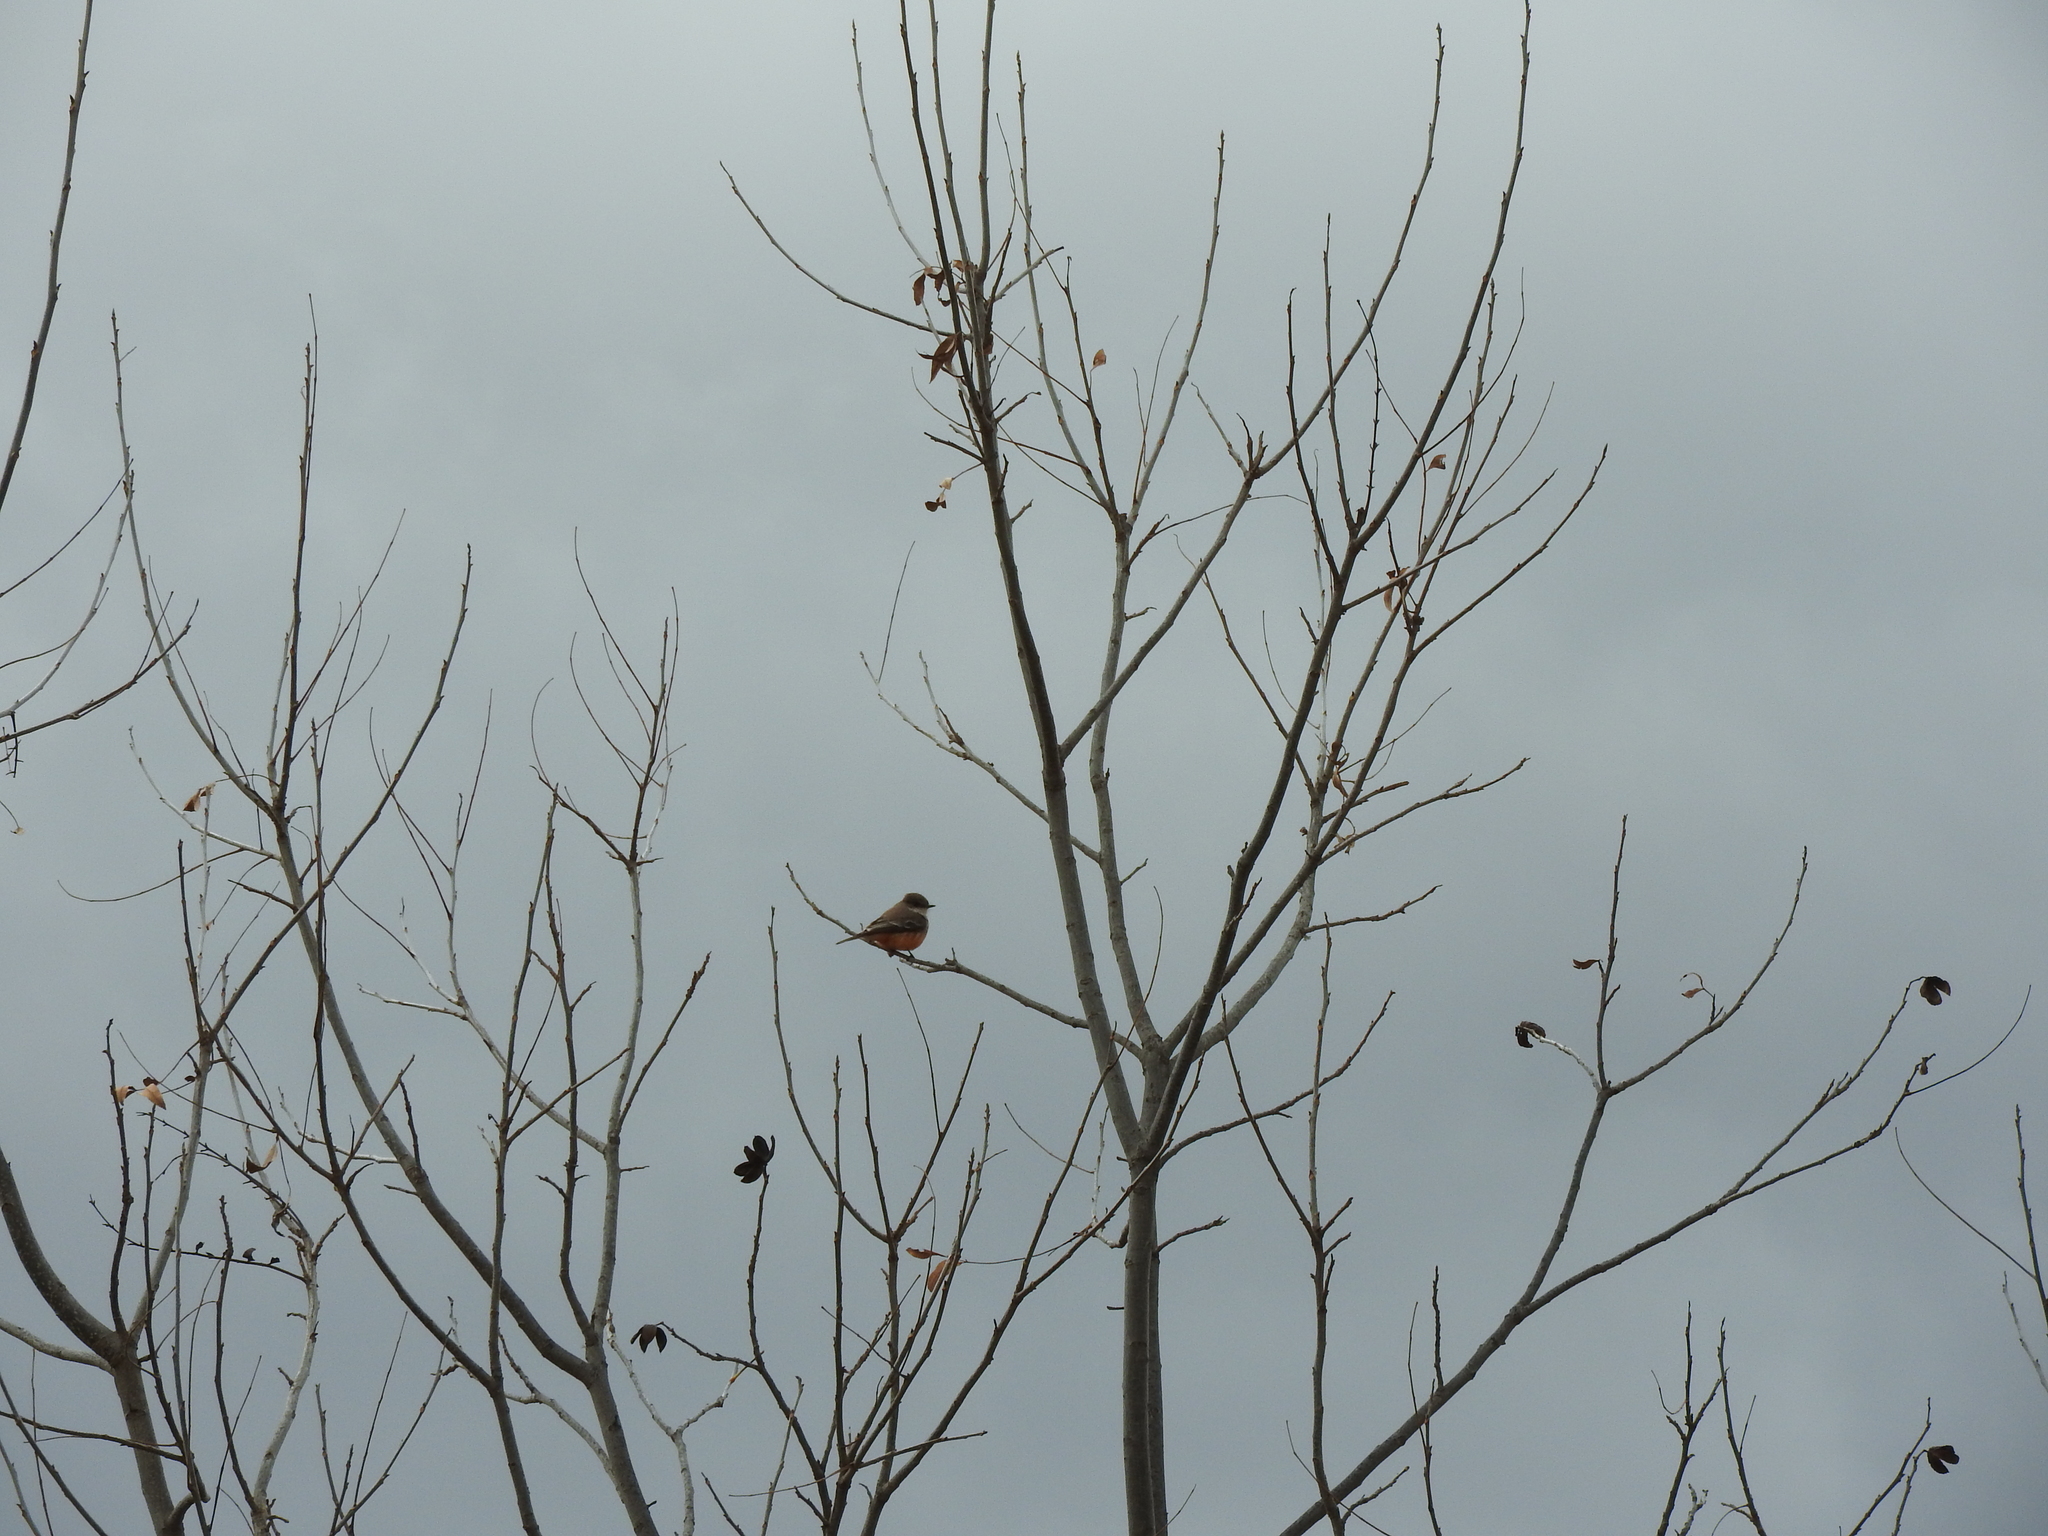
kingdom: Animalia
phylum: Chordata
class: Aves
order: Passeriformes
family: Tyrannidae
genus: Pyrocephalus
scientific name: Pyrocephalus rubinus
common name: Vermilion flycatcher
